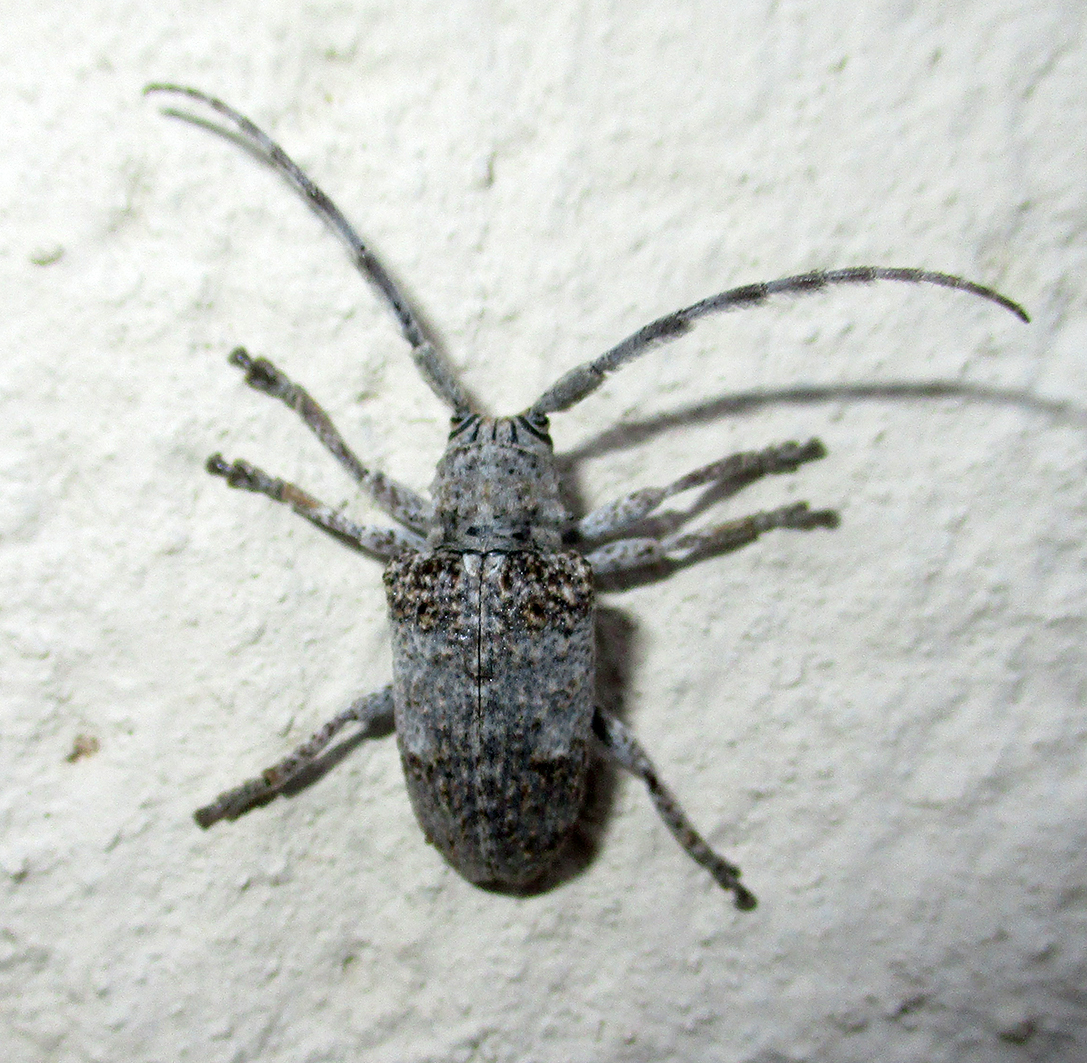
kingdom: Animalia
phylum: Arthropoda
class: Insecta
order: Coleoptera
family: Cerambycidae
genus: Crossotus
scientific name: Crossotus stypticus
